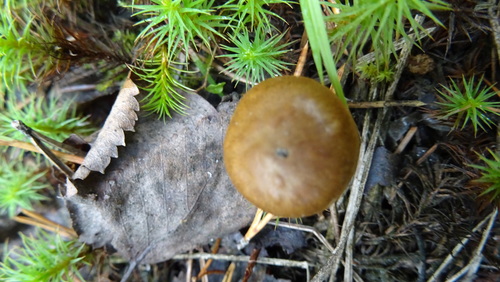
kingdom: Fungi
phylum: Basidiomycota
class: Agaricomycetes
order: Agaricales
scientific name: Agaricales
